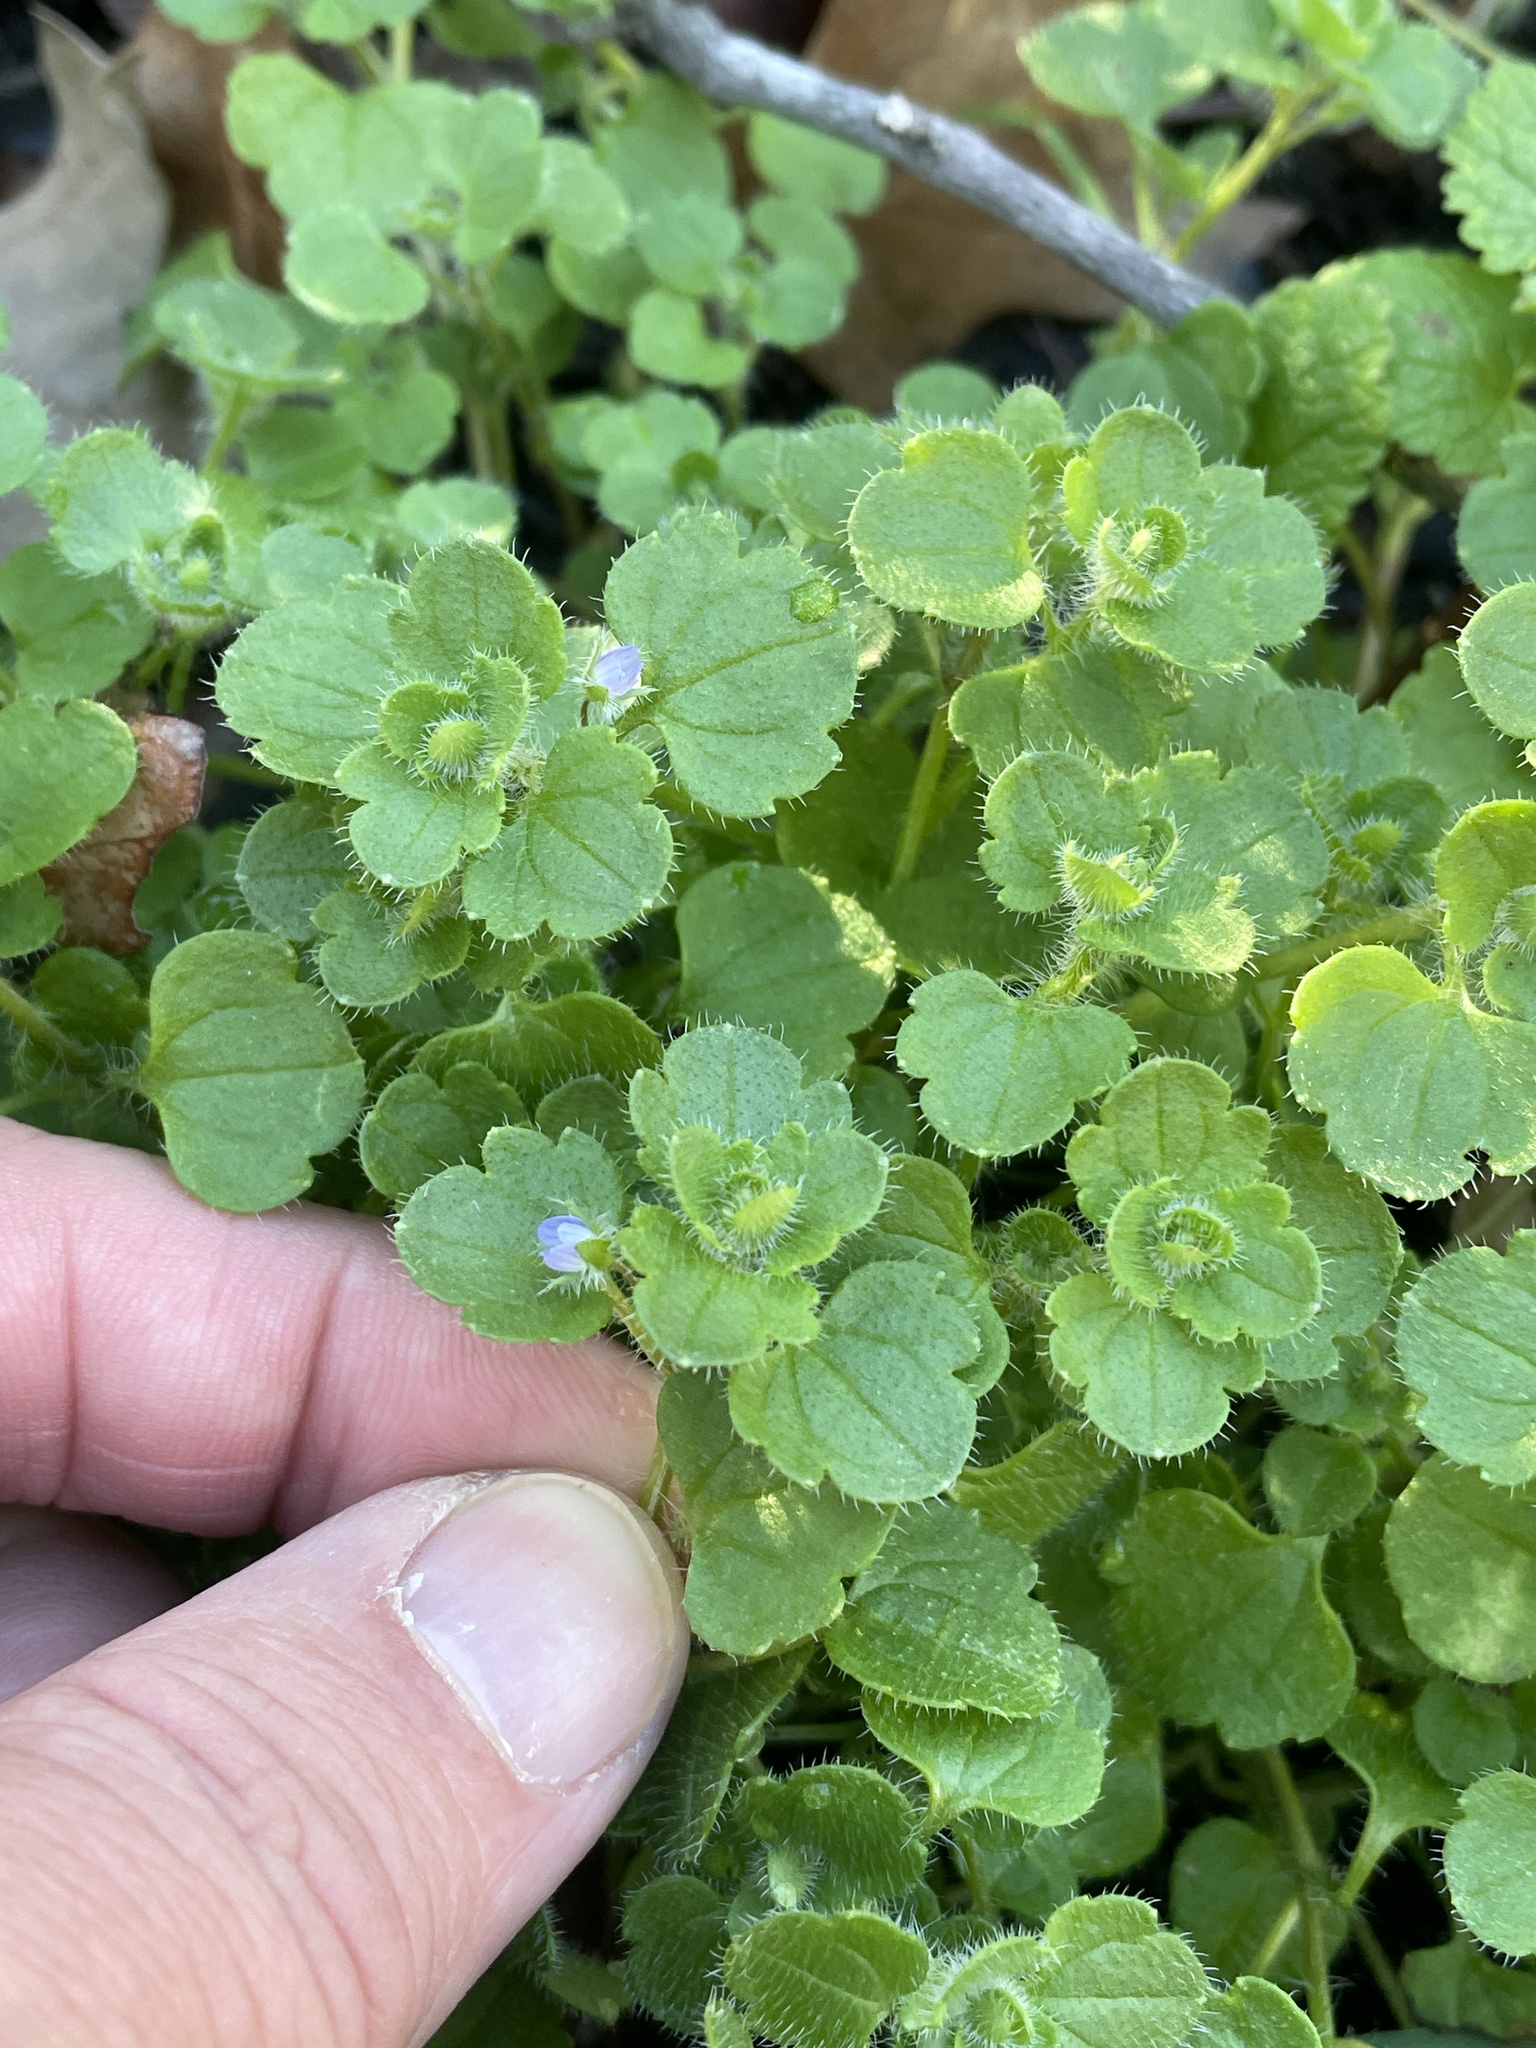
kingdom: Plantae
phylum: Tracheophyta
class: Magnoliopsida
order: Lamiales
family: Plantaginaceae
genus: Veronica
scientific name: Veronica hederifolia
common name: Ivy-leaved speedwell
